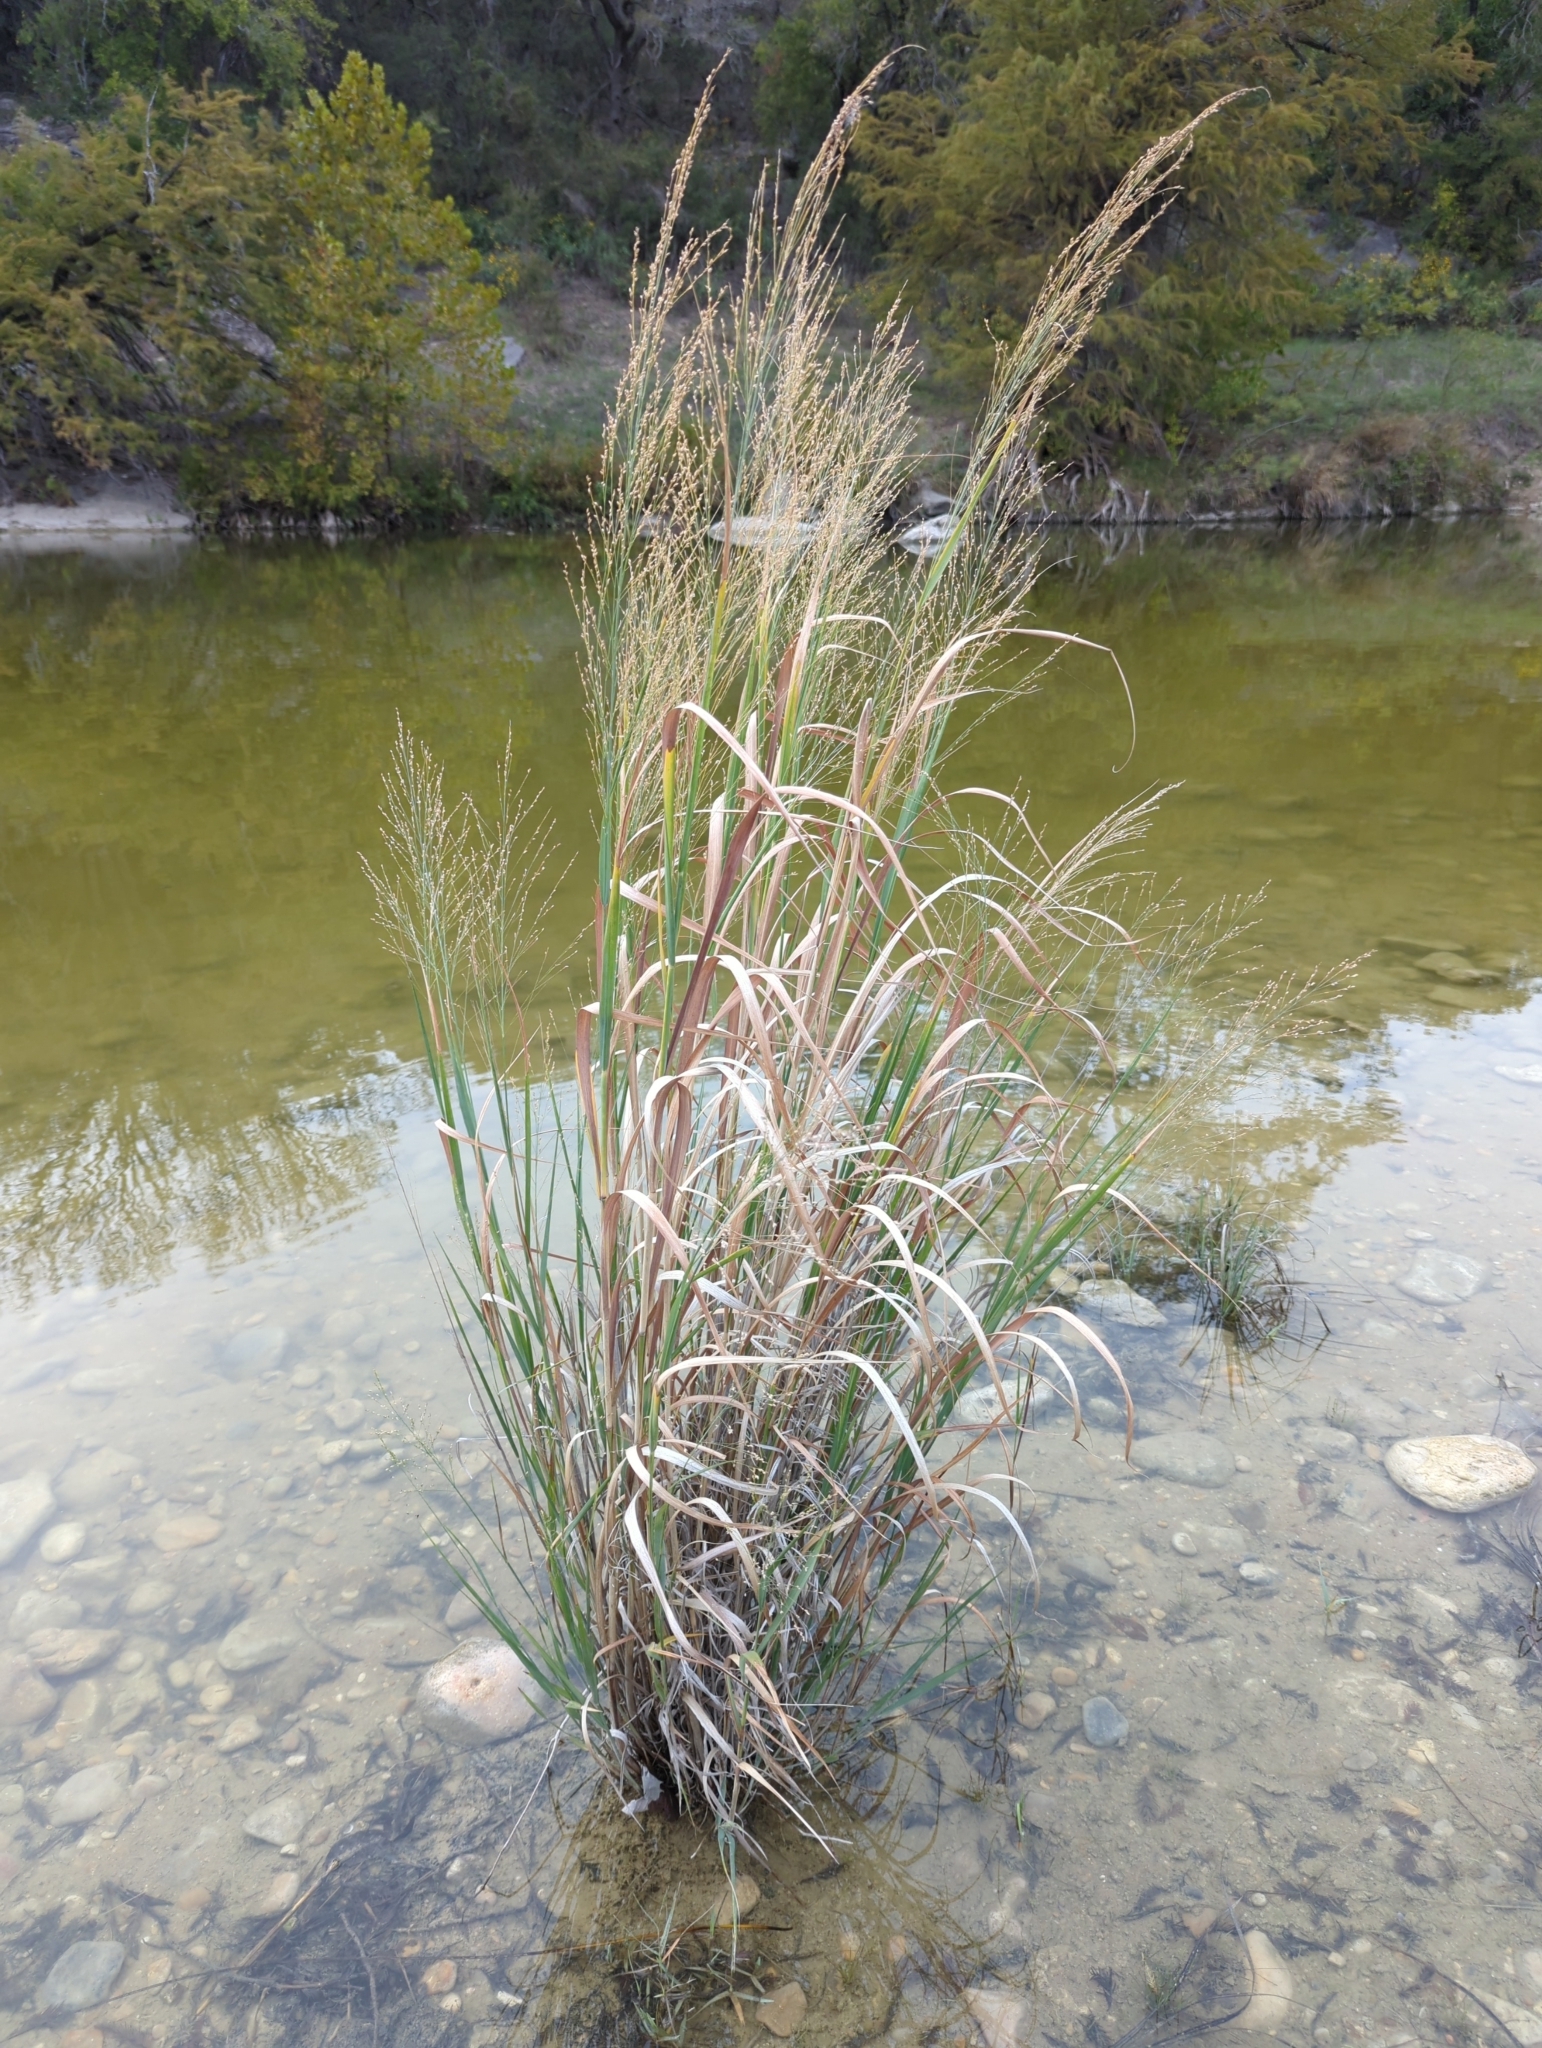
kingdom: Plantae
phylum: Tracheophyta
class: Liliopsida
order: Poales
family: Poaceae
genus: Panicum
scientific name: Panicum virgatum
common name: Switchgrass
